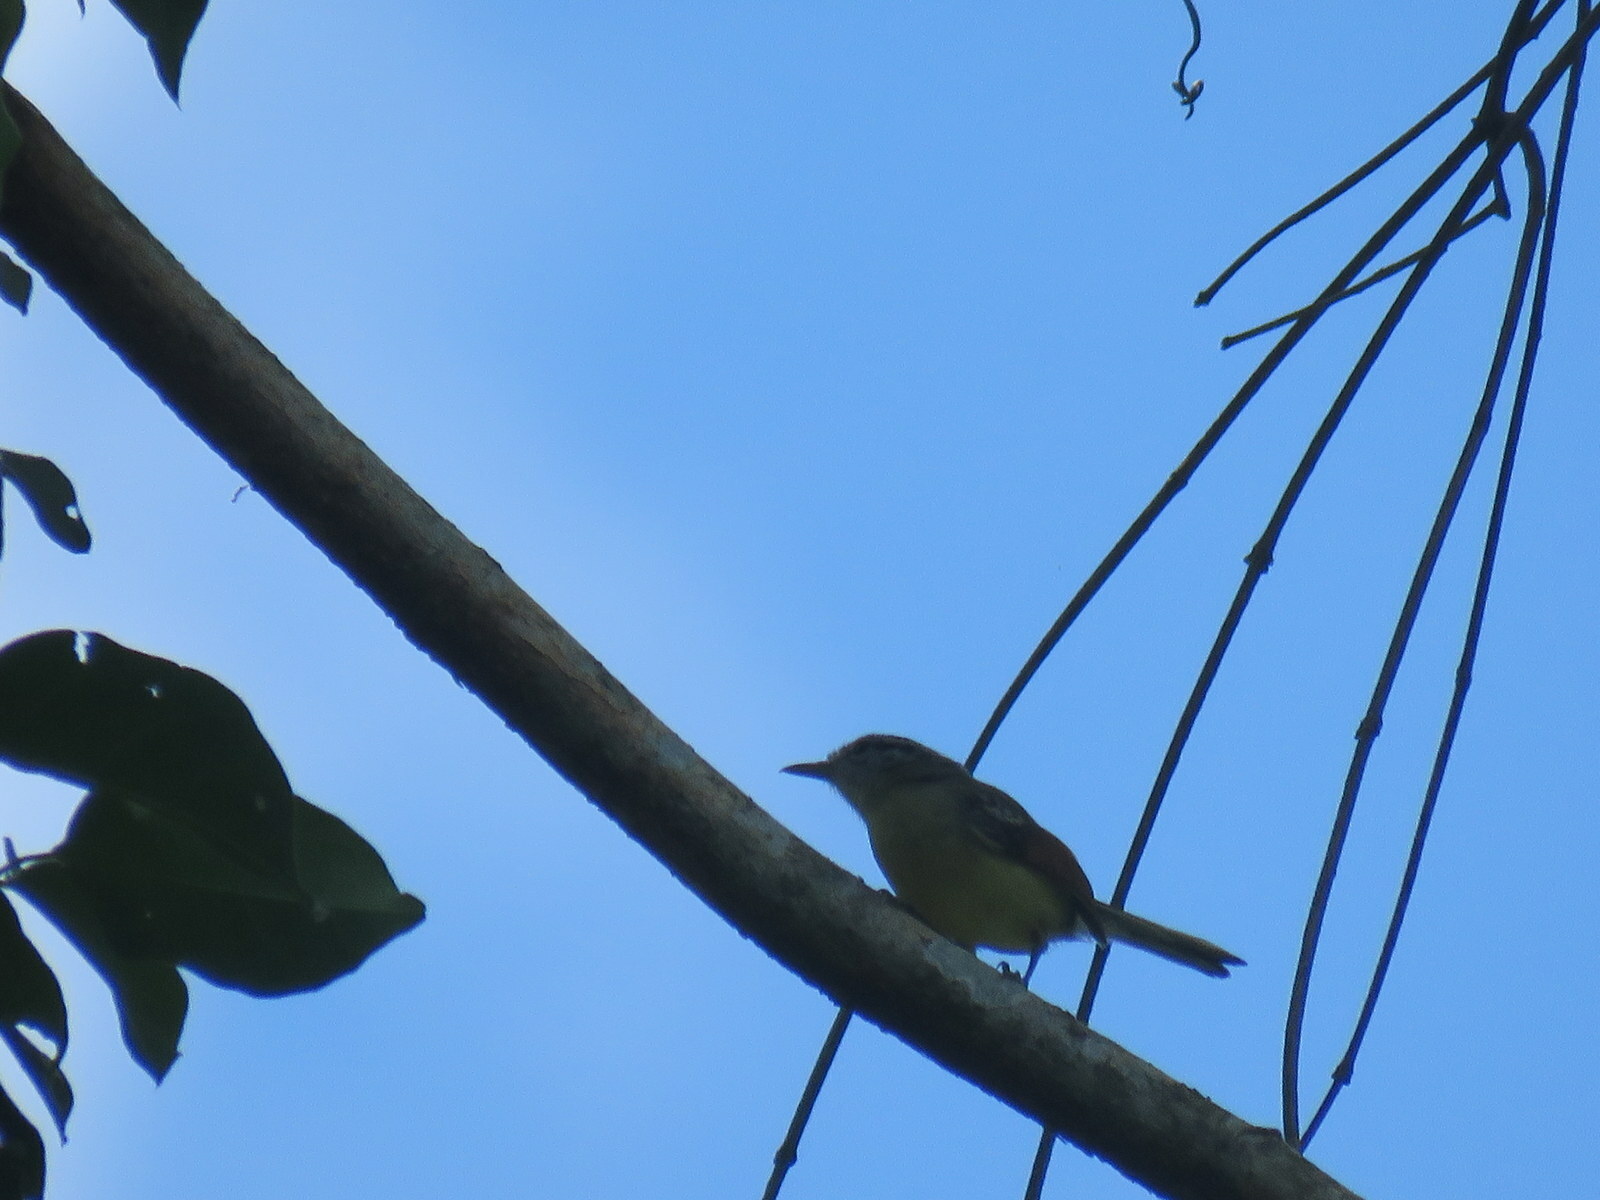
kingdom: Animalia
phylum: Chordata
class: Aves
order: Passeriformes
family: Thamnophilidae
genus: Herpsilochmus
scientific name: Herpsilochmus rufimarginatus
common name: Rufous-winged antwren
